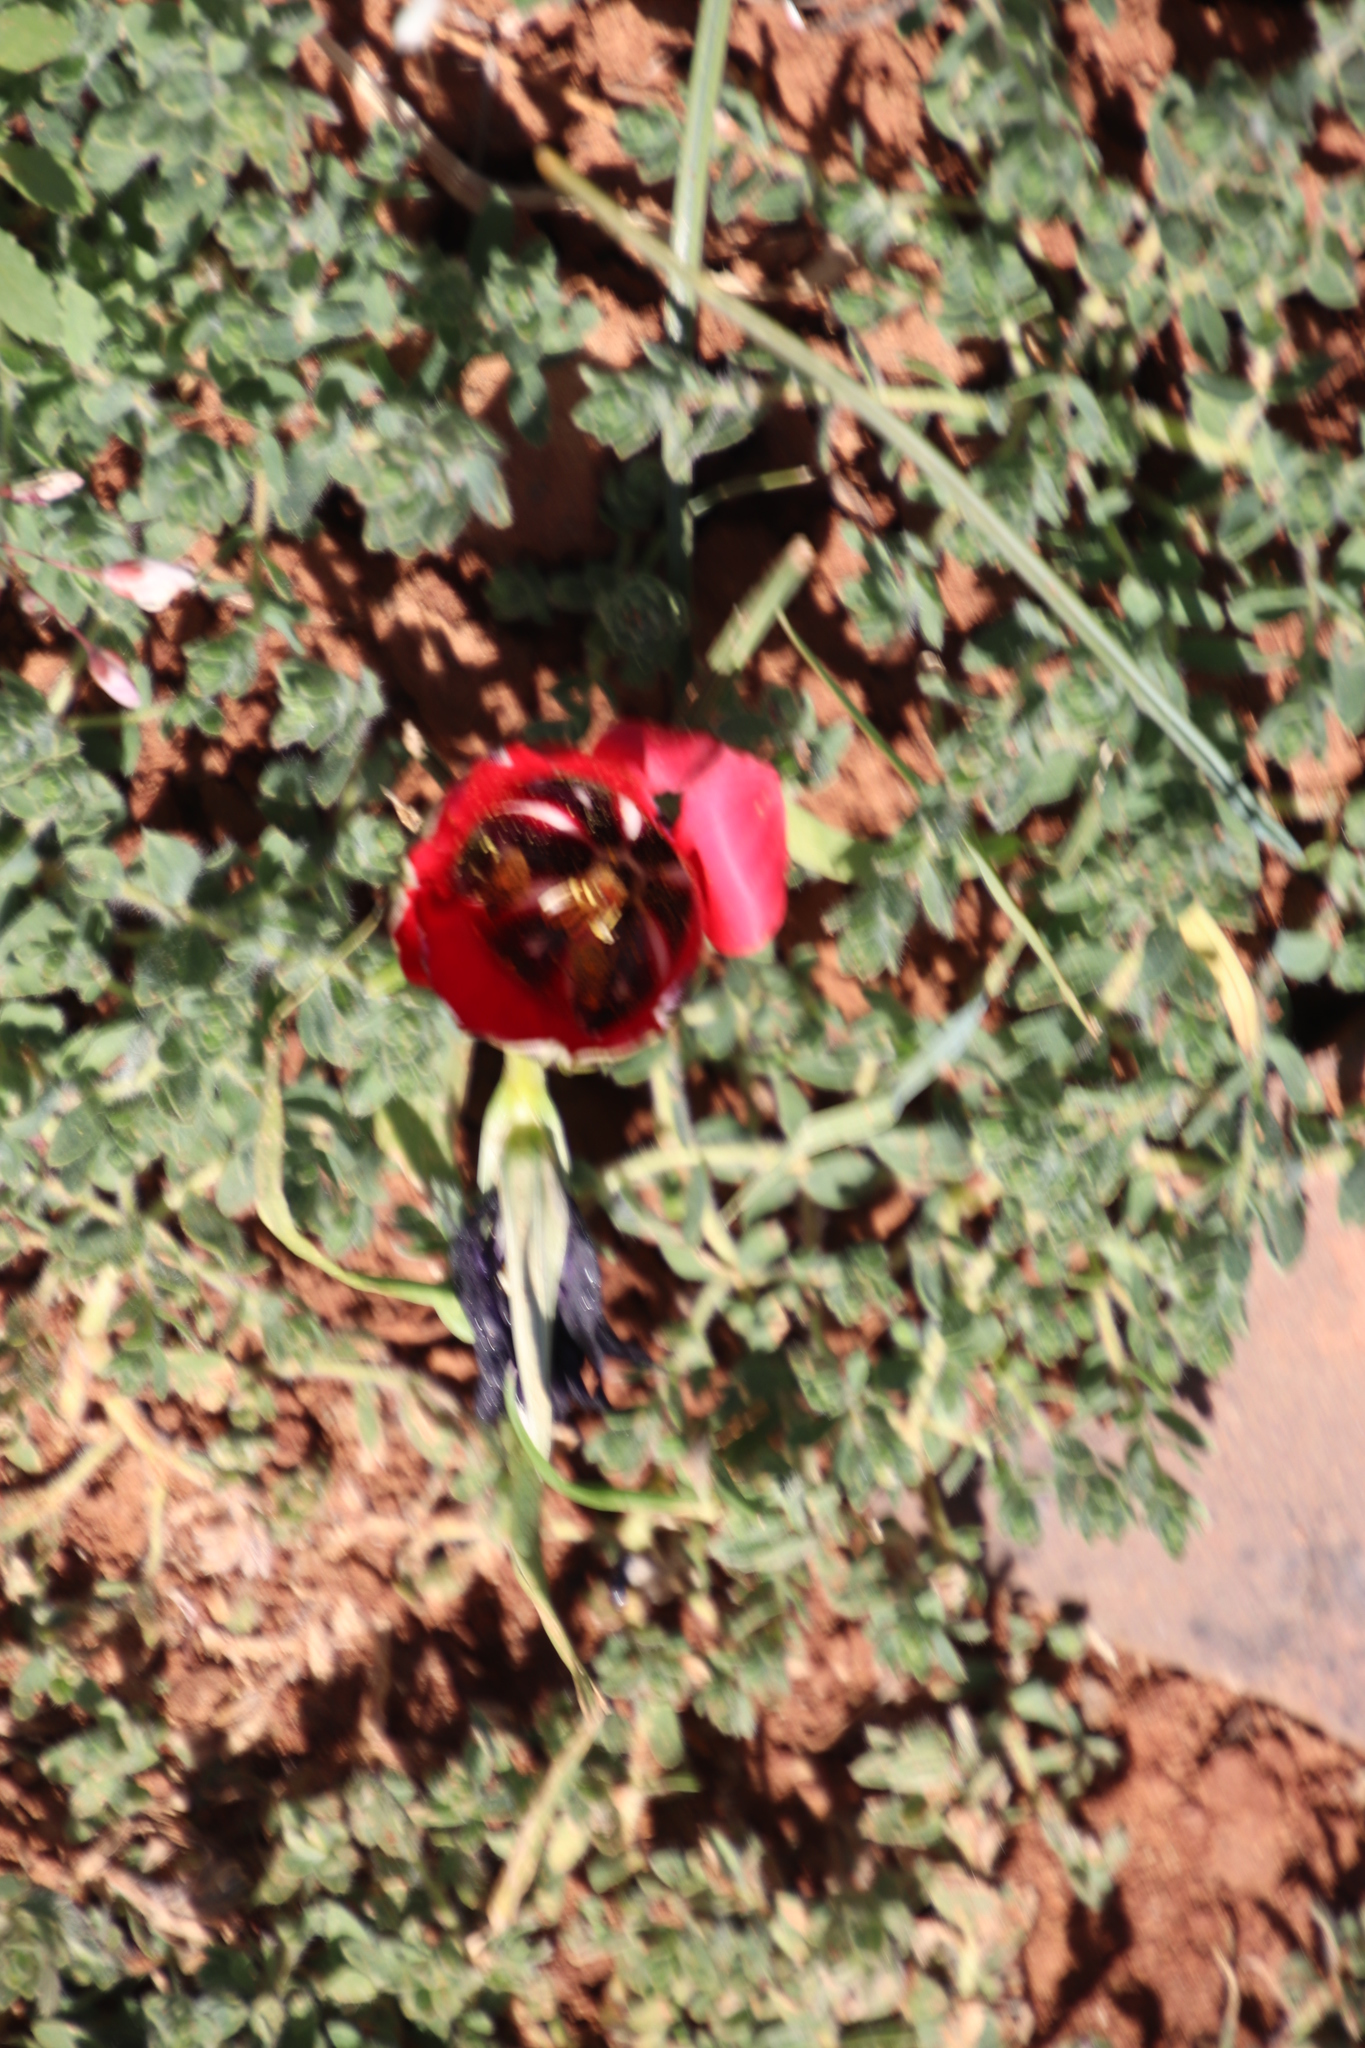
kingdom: Plantae
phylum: Tracheophyta
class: Liliopsida
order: Asparagales
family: Iridaceae
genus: Romulea
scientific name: Romulea monadelpha
